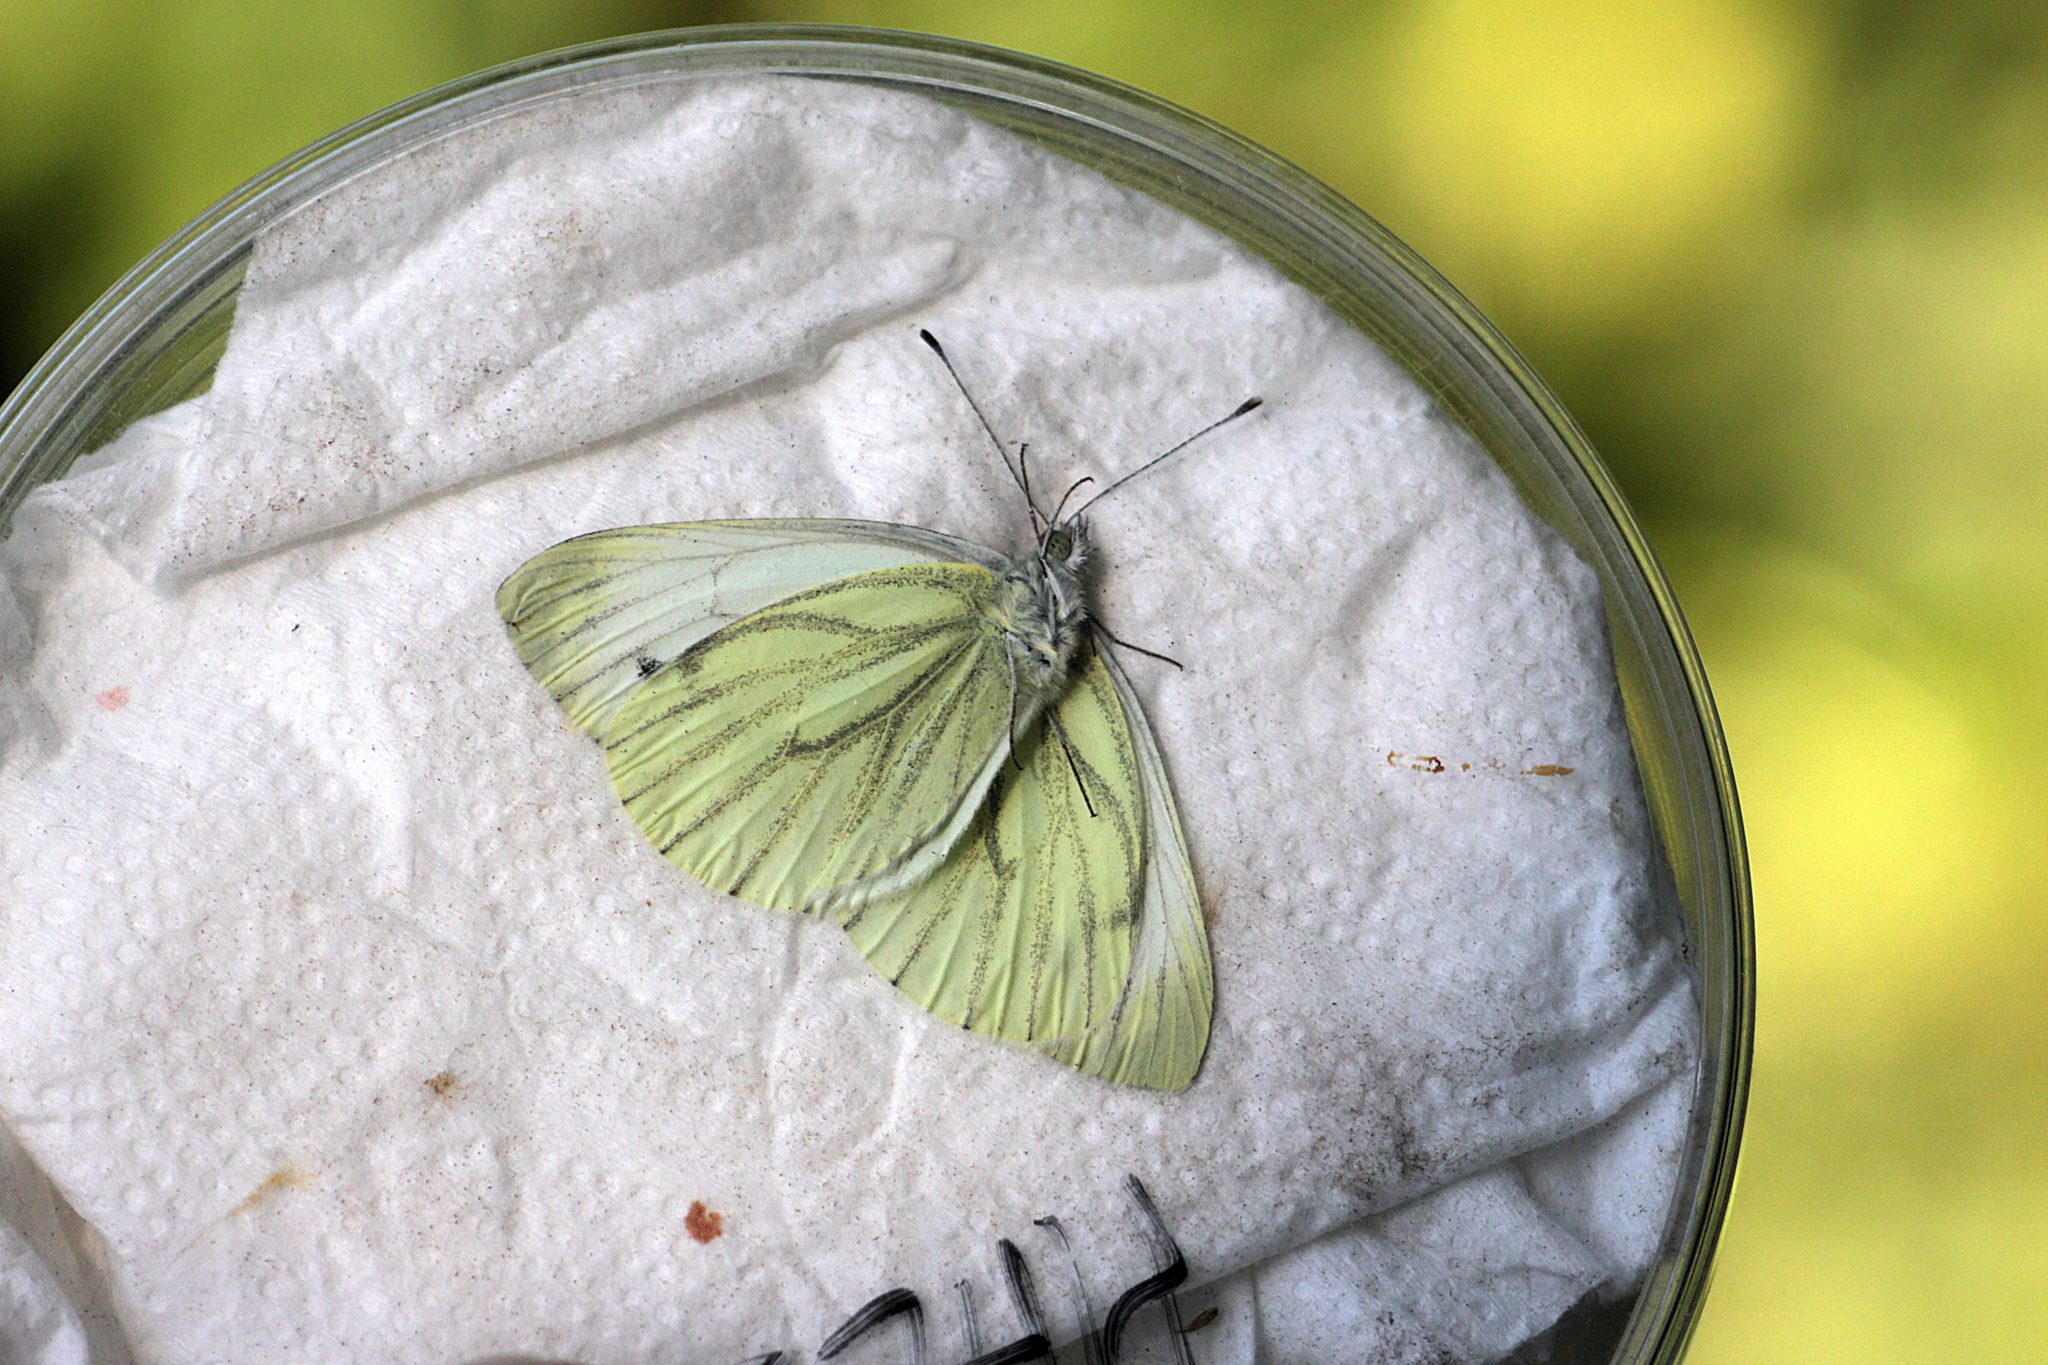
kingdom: Animalia
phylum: Arthropoda
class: Insecta
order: Lepidoptera
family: Pieridae
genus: Pieris
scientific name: Pieris napi
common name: Green-veined white
